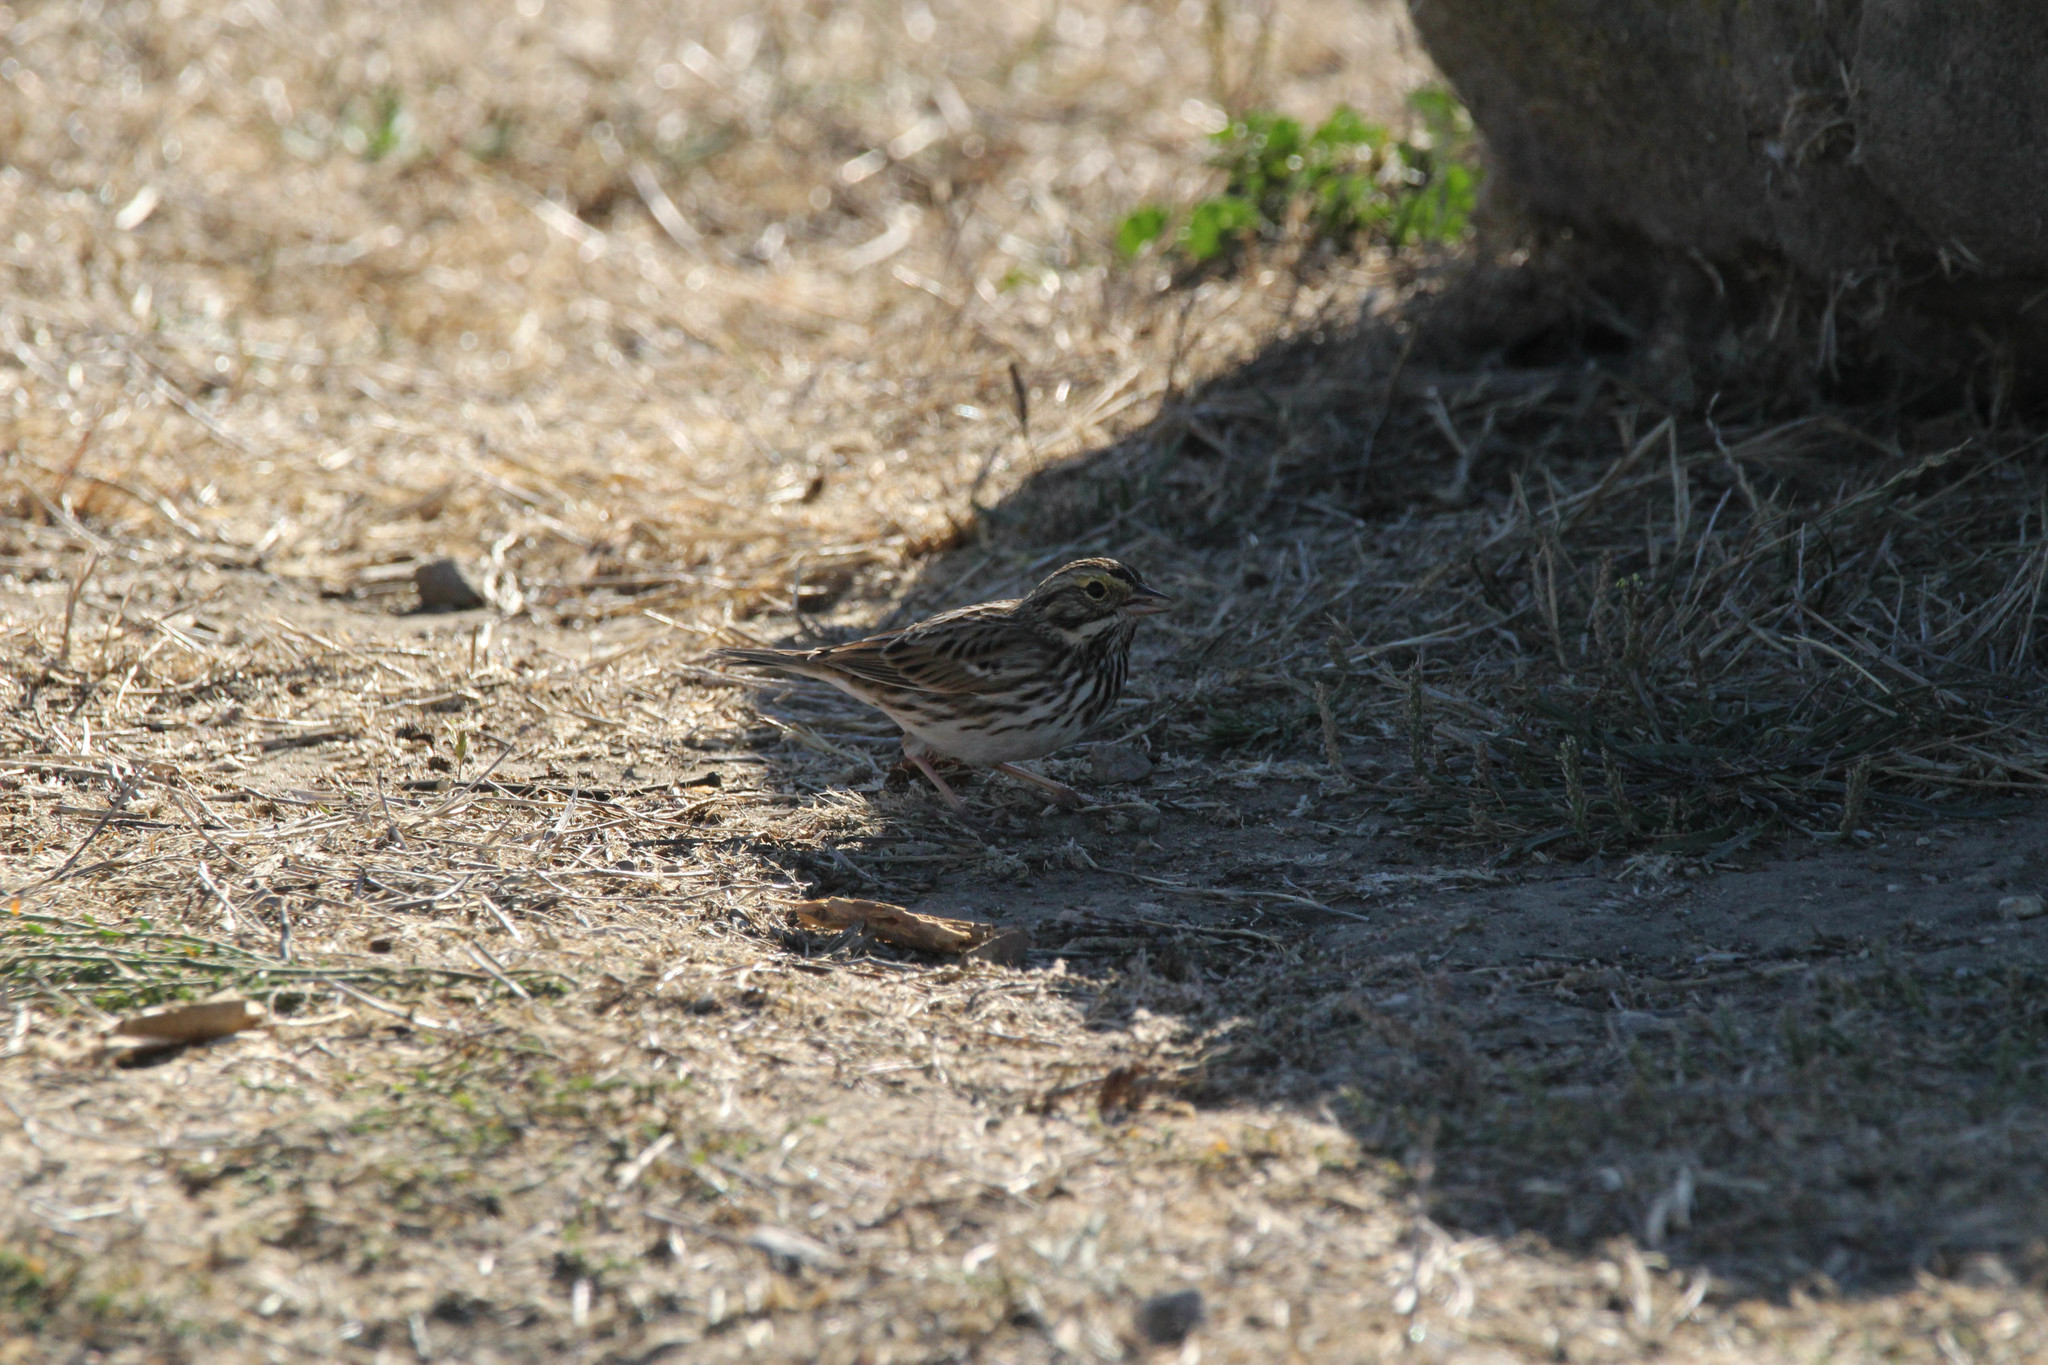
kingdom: Animalia
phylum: Chordata
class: Aves
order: Passeriformes
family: Passerellidae
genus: Passerculus
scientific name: Passerculus sandwichensis
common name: Savannah sparrow
